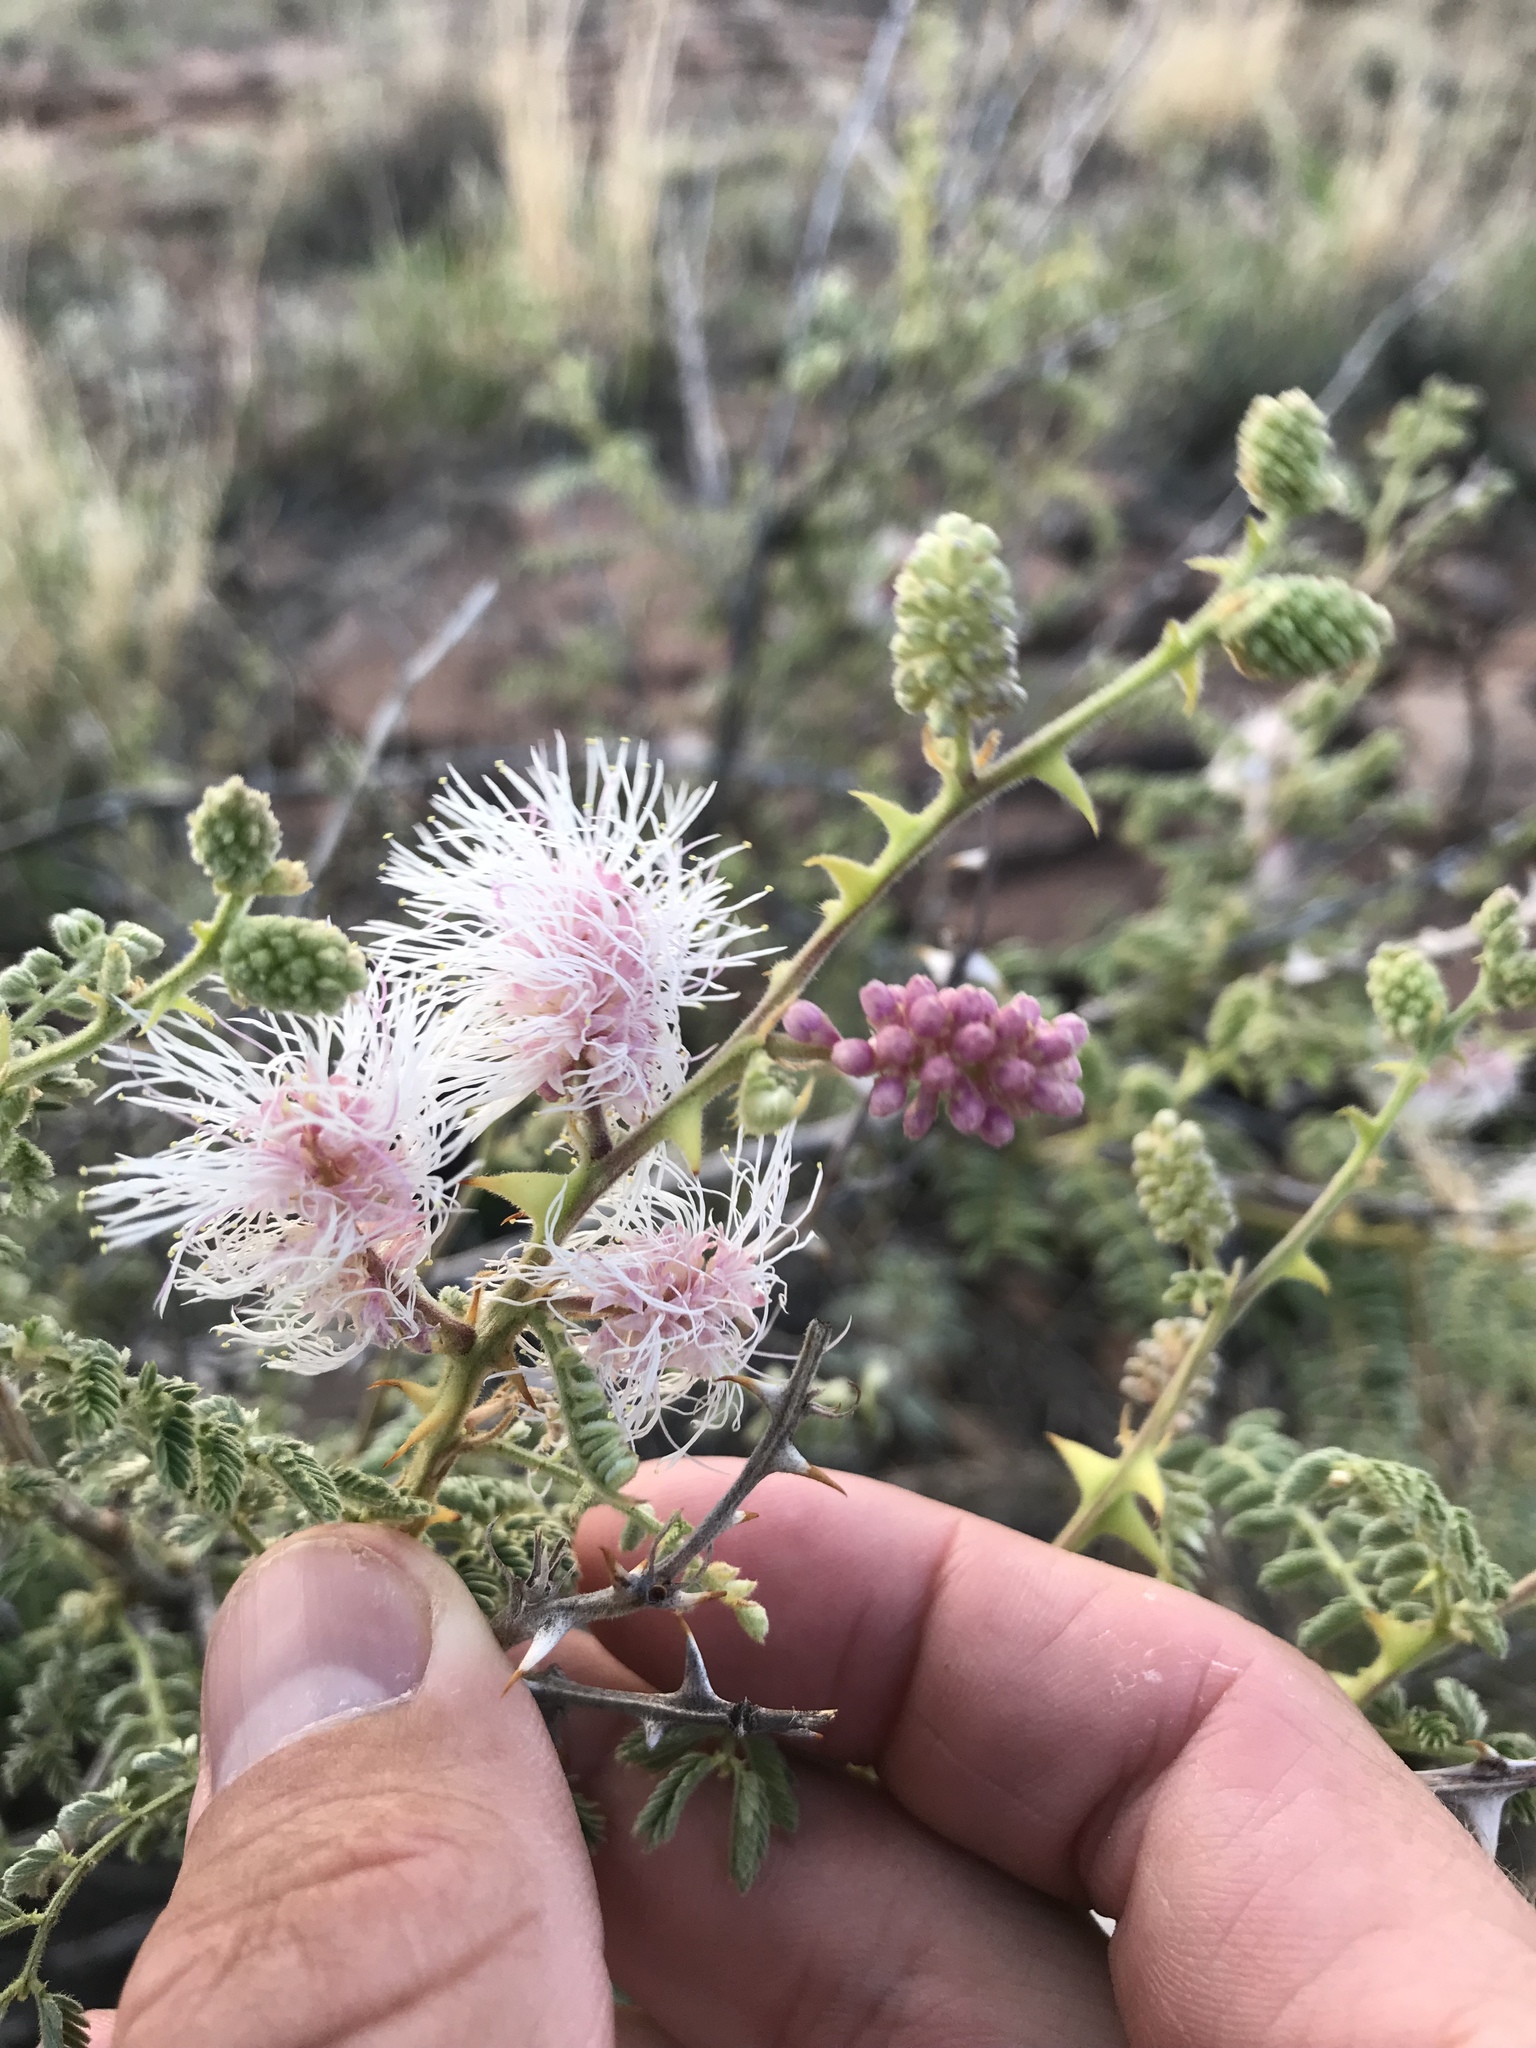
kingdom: Plantae
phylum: Tracheophyta
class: Magnoliopsida
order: Fabales
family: Fabaceae
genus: Mimosa
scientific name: Mimosa dysocarpa
